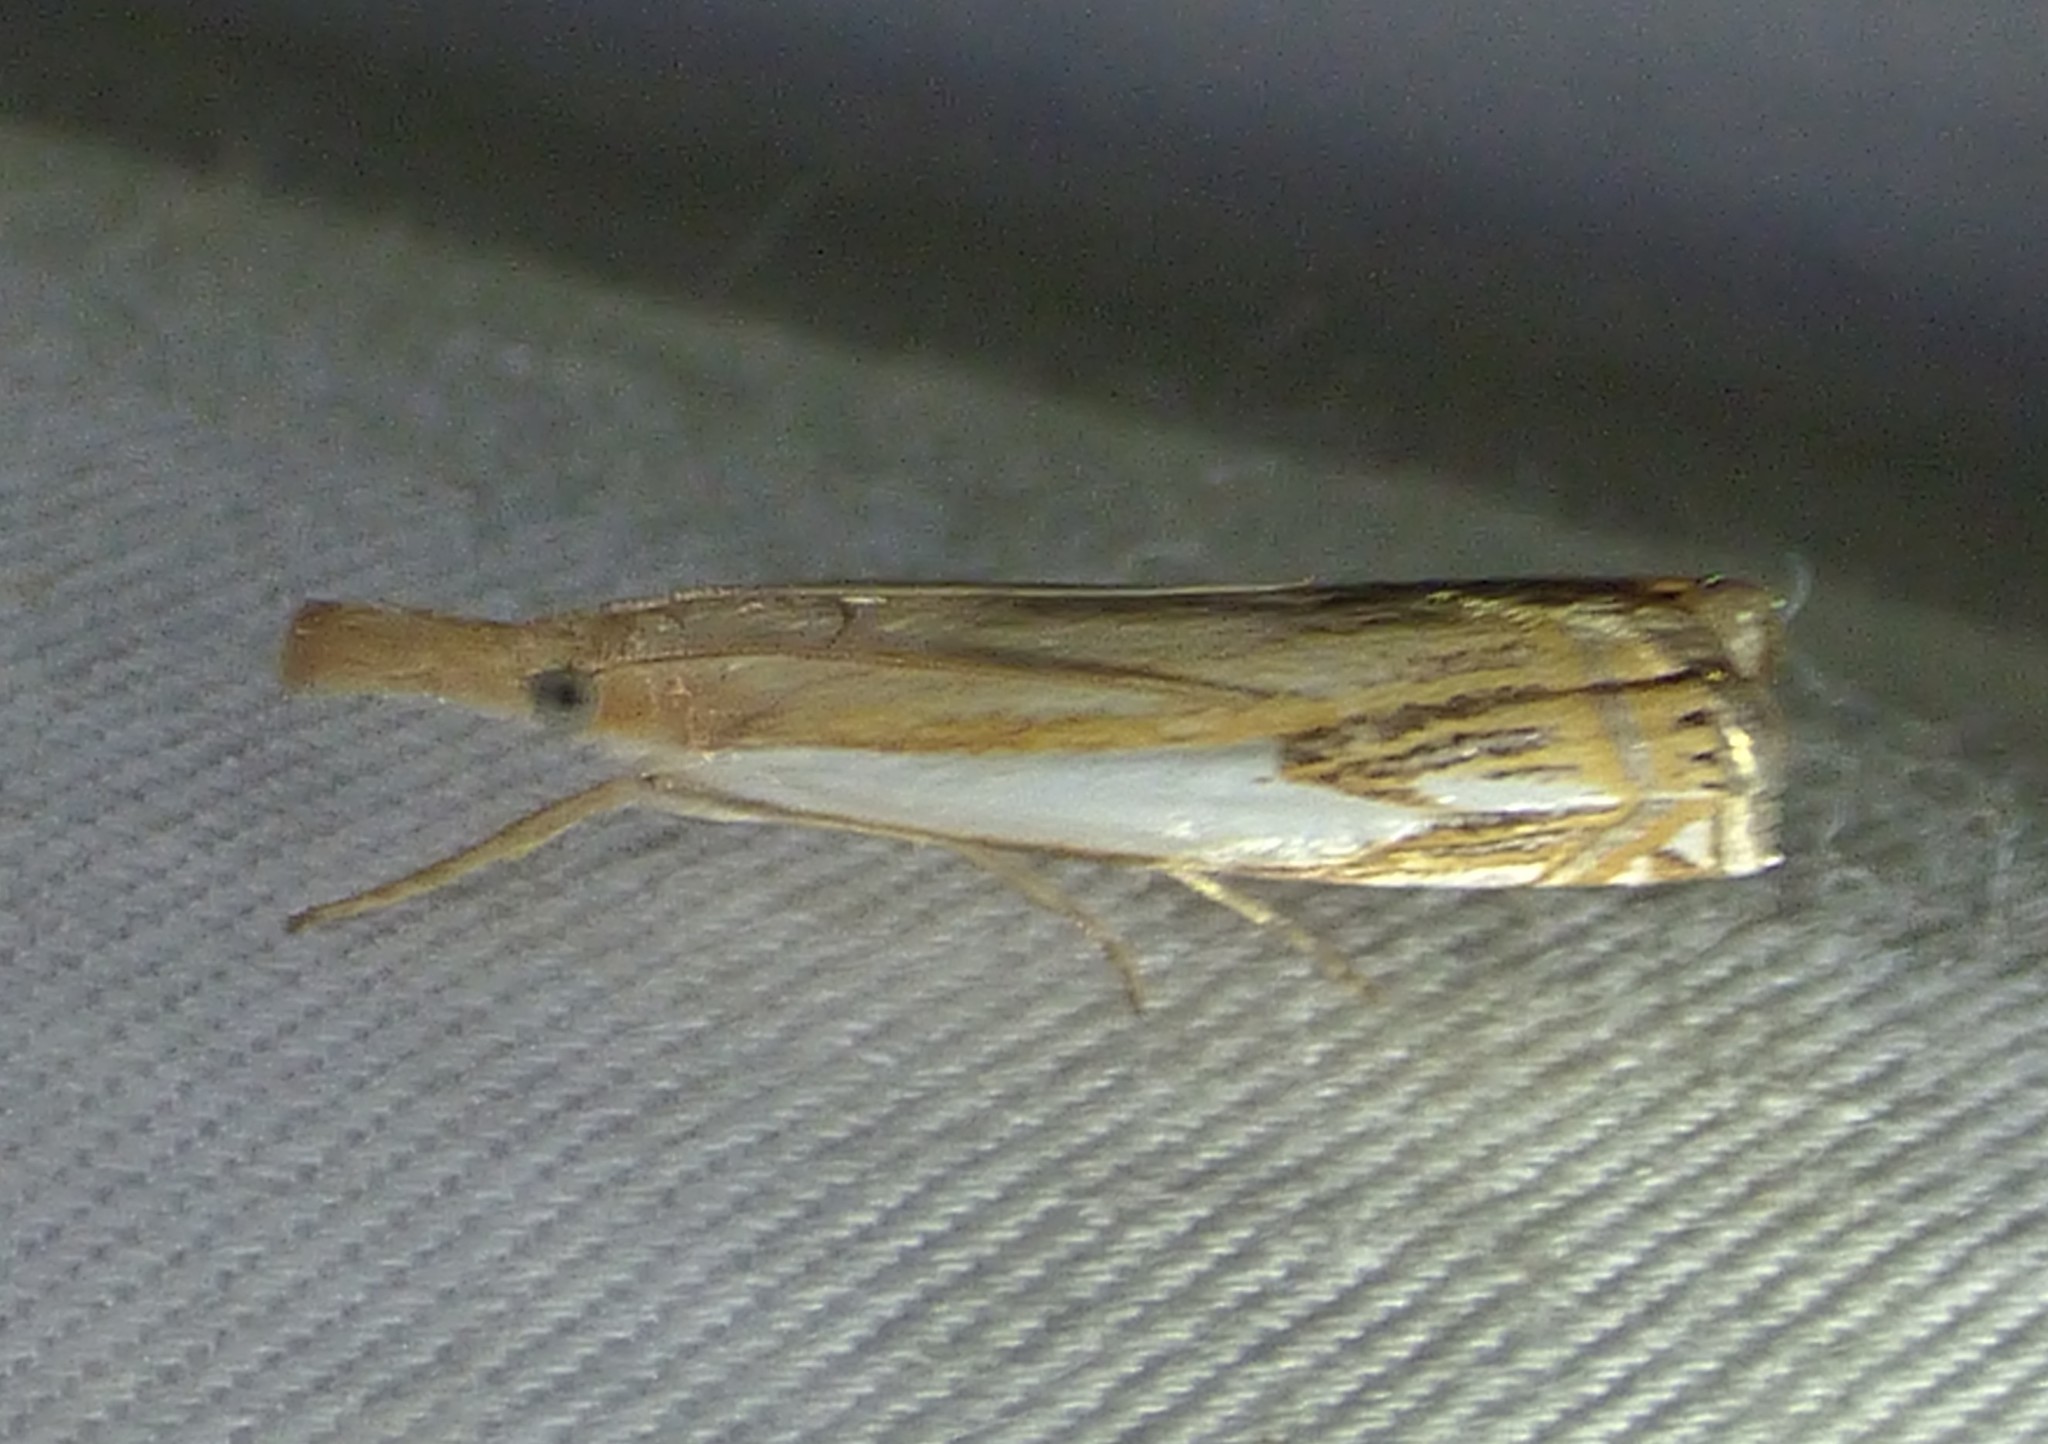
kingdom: Animalia
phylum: Arthropoda
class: Insecta
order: Lepidoptera
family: Crambidae
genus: Crambus
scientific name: Crambus agitatellus
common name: Double-banded grass-veneer
